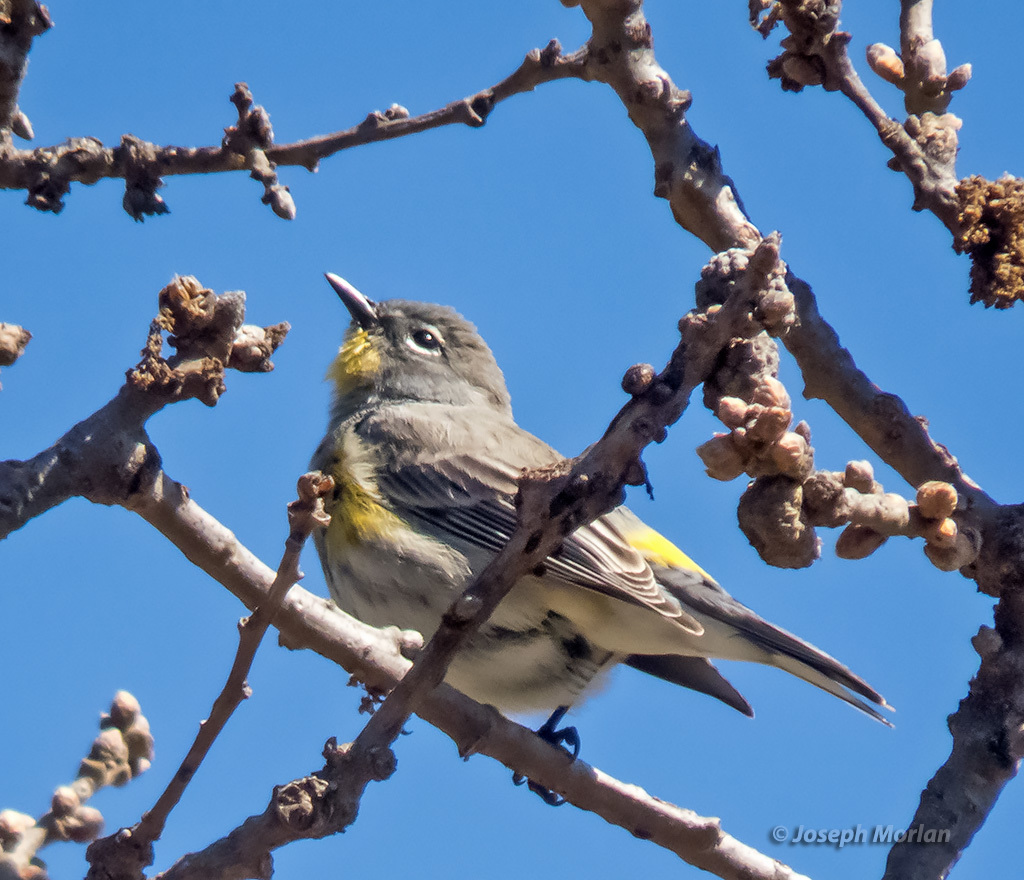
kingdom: Animalia
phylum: Chordata
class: Aves
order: Passeriformes
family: Parulidae
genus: Setophaga
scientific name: Setophaga coronata
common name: Myrtle warbler
